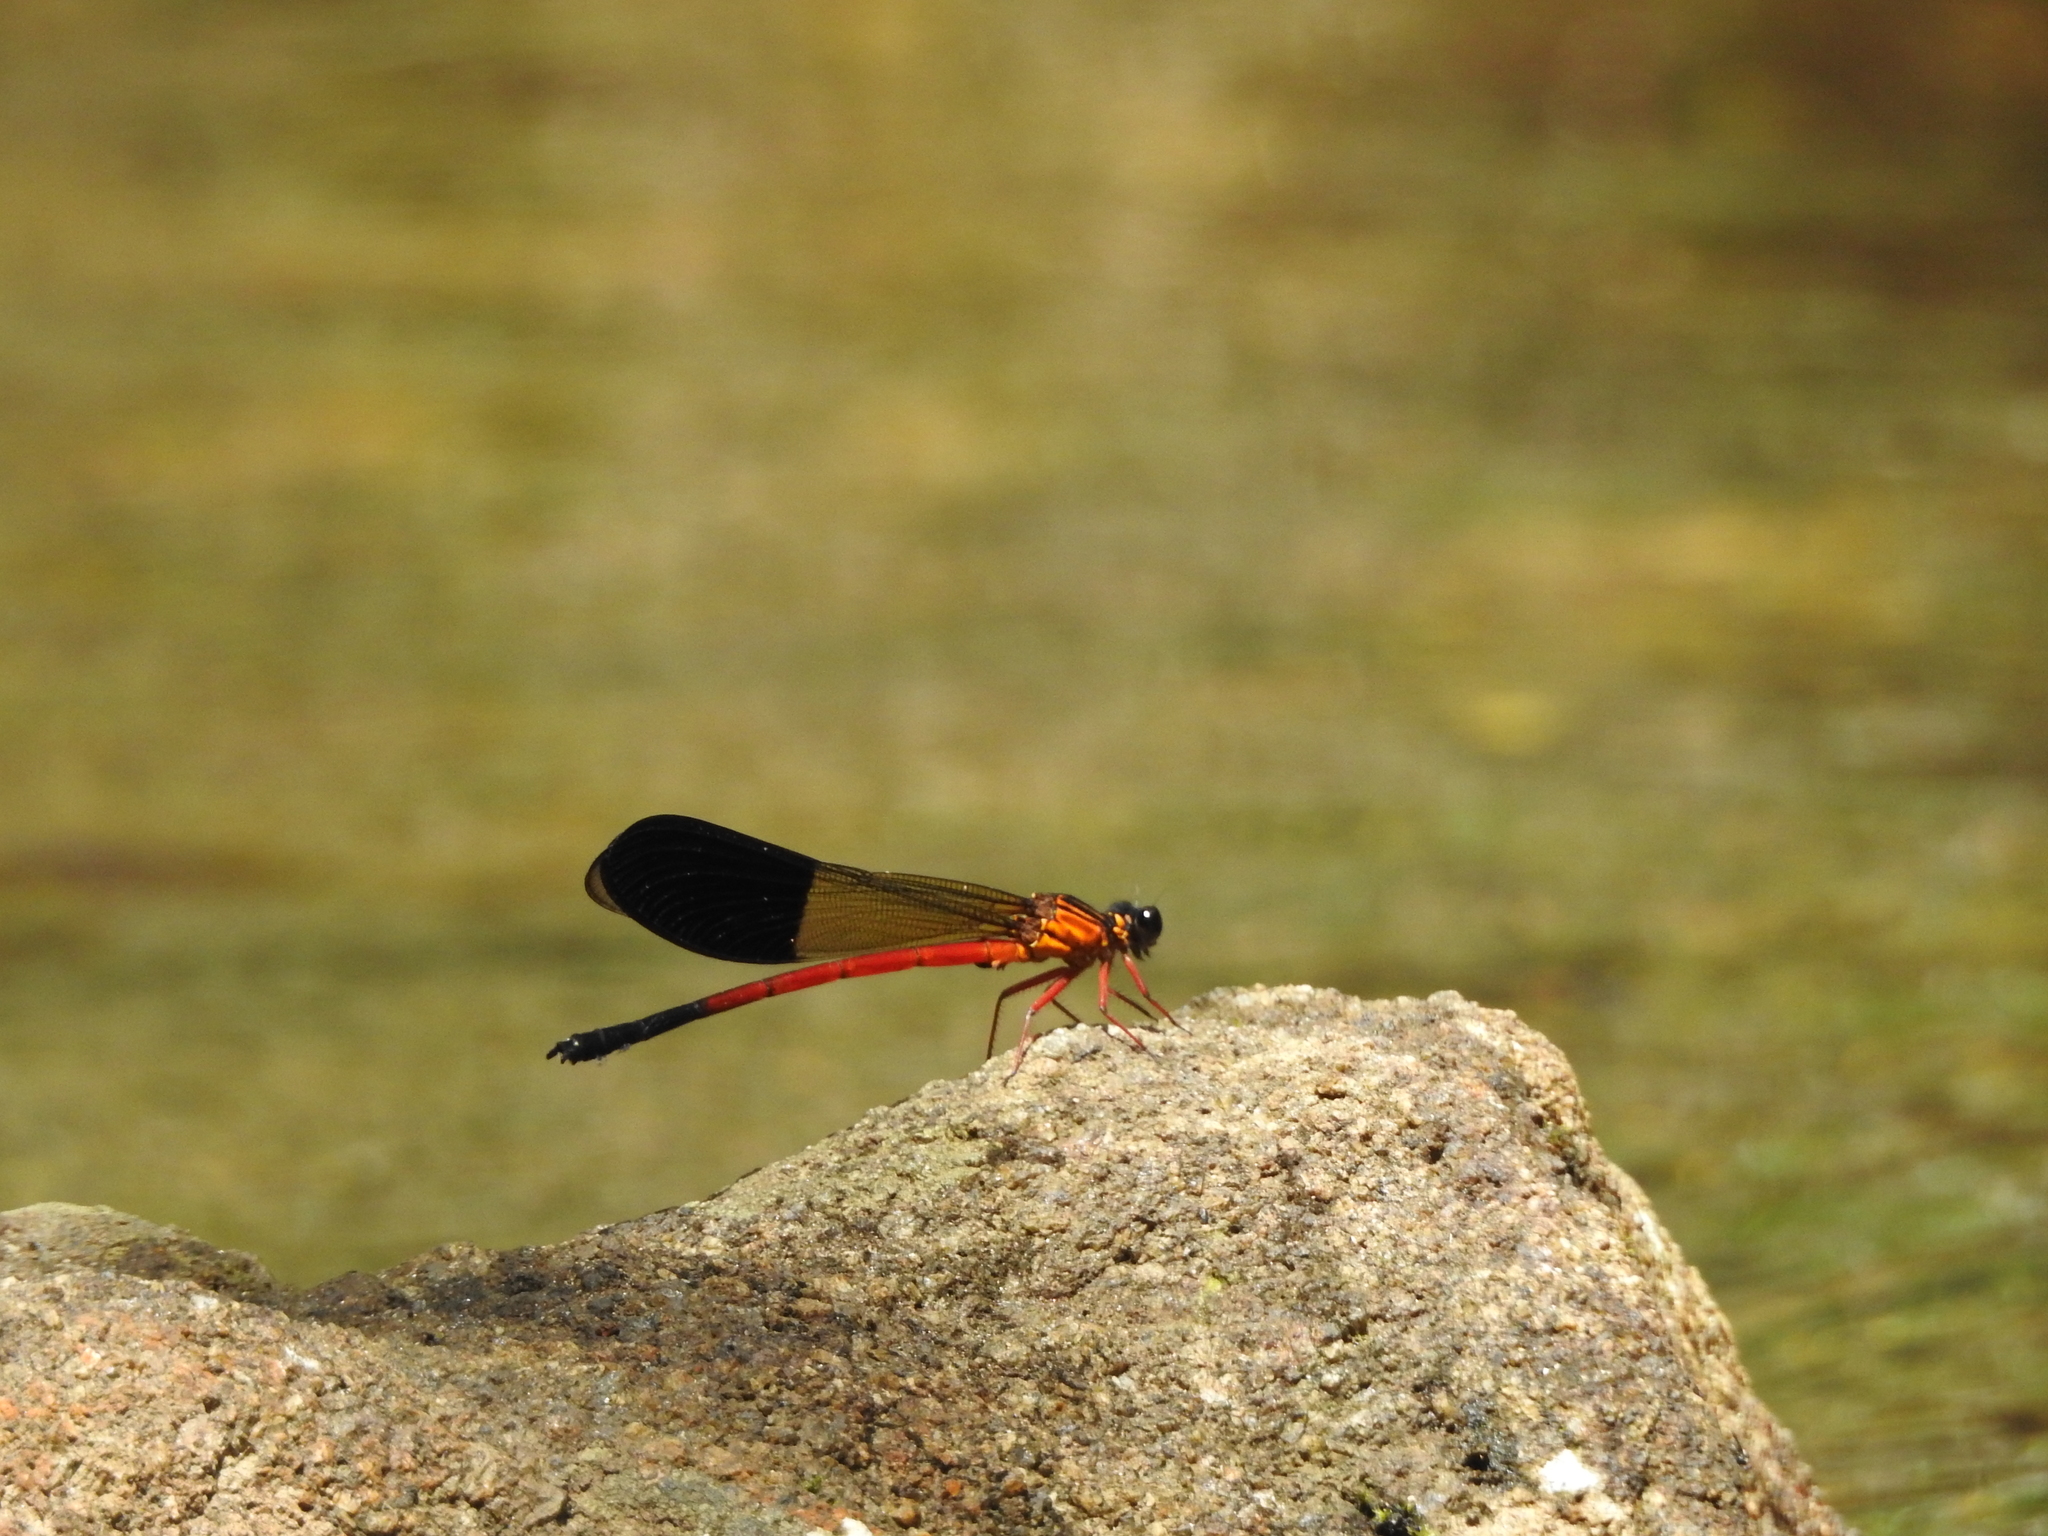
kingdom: Animalia
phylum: Arthropoda
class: Insecta
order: Odonata
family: Euphaeidae
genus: Euphaea
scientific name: Euphaea cardinalis
